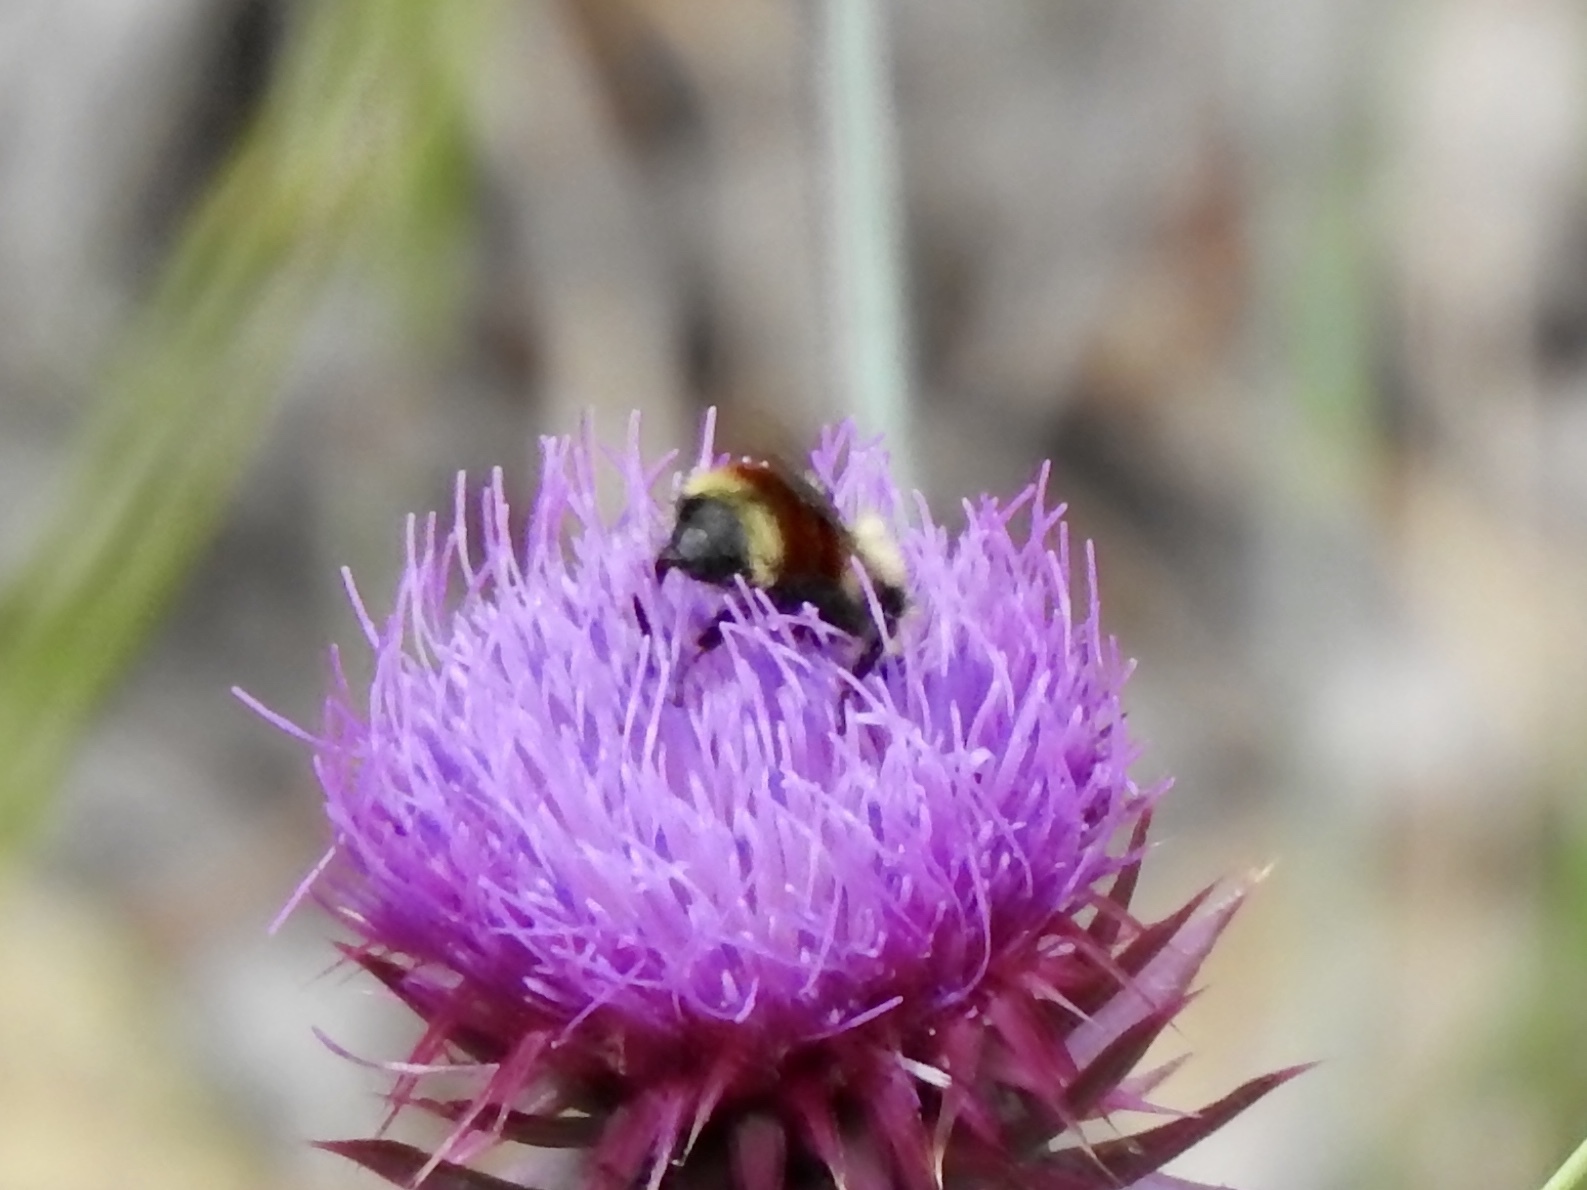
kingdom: Animalia
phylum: Arthropoda
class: Insecta
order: Hymenoptera
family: Apidae
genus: Bombus
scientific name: Bombus huntii
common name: Hunt bumble bee
